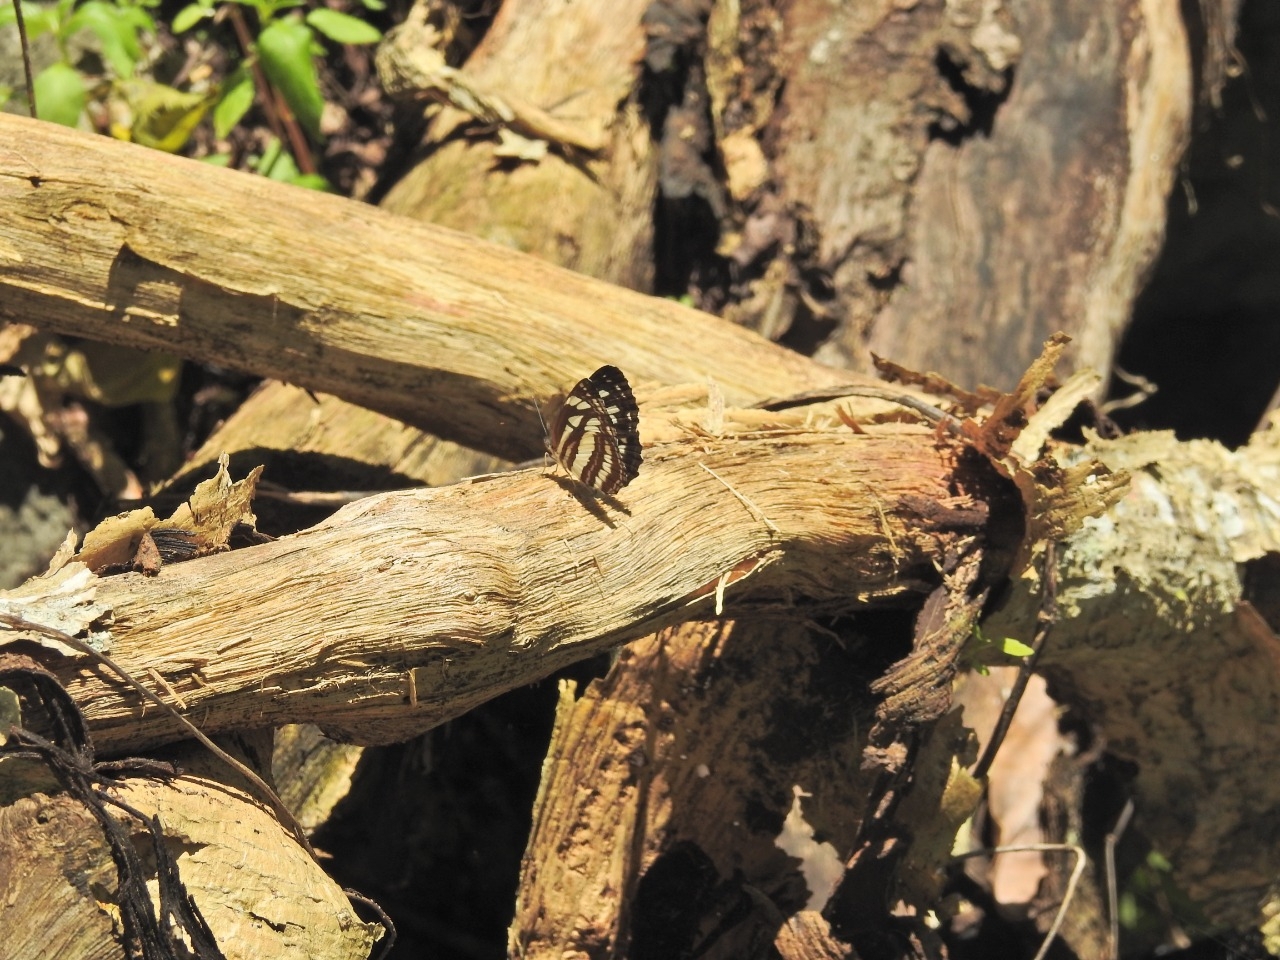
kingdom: Animalia
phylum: Arthropoda
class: Insecta
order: Lepidoptera
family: Nymphalidae
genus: Neptis
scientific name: Neptis hylas
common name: Common sailer
